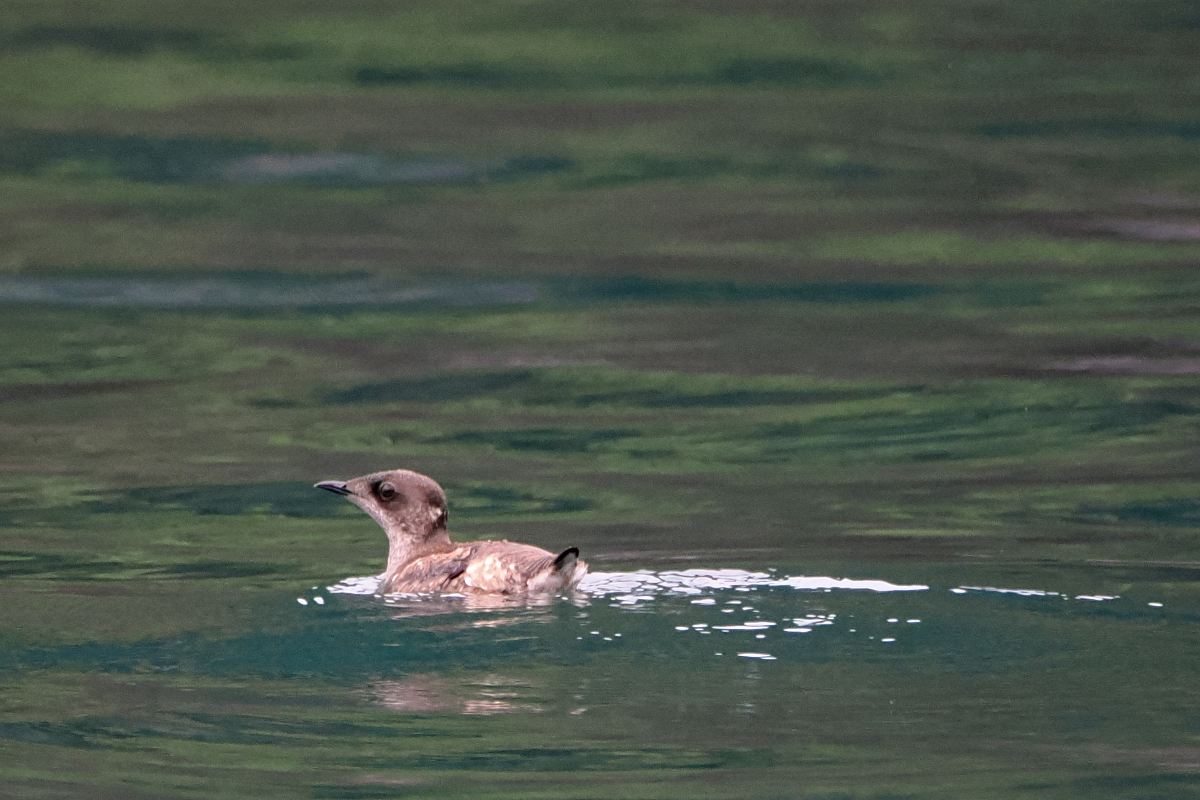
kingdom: Animalia
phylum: Chordata
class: Aves
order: Charadriiformes
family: Alcidae
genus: Brachyramphus
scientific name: Brachyramphus marmoratus
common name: Marbled murrelet
